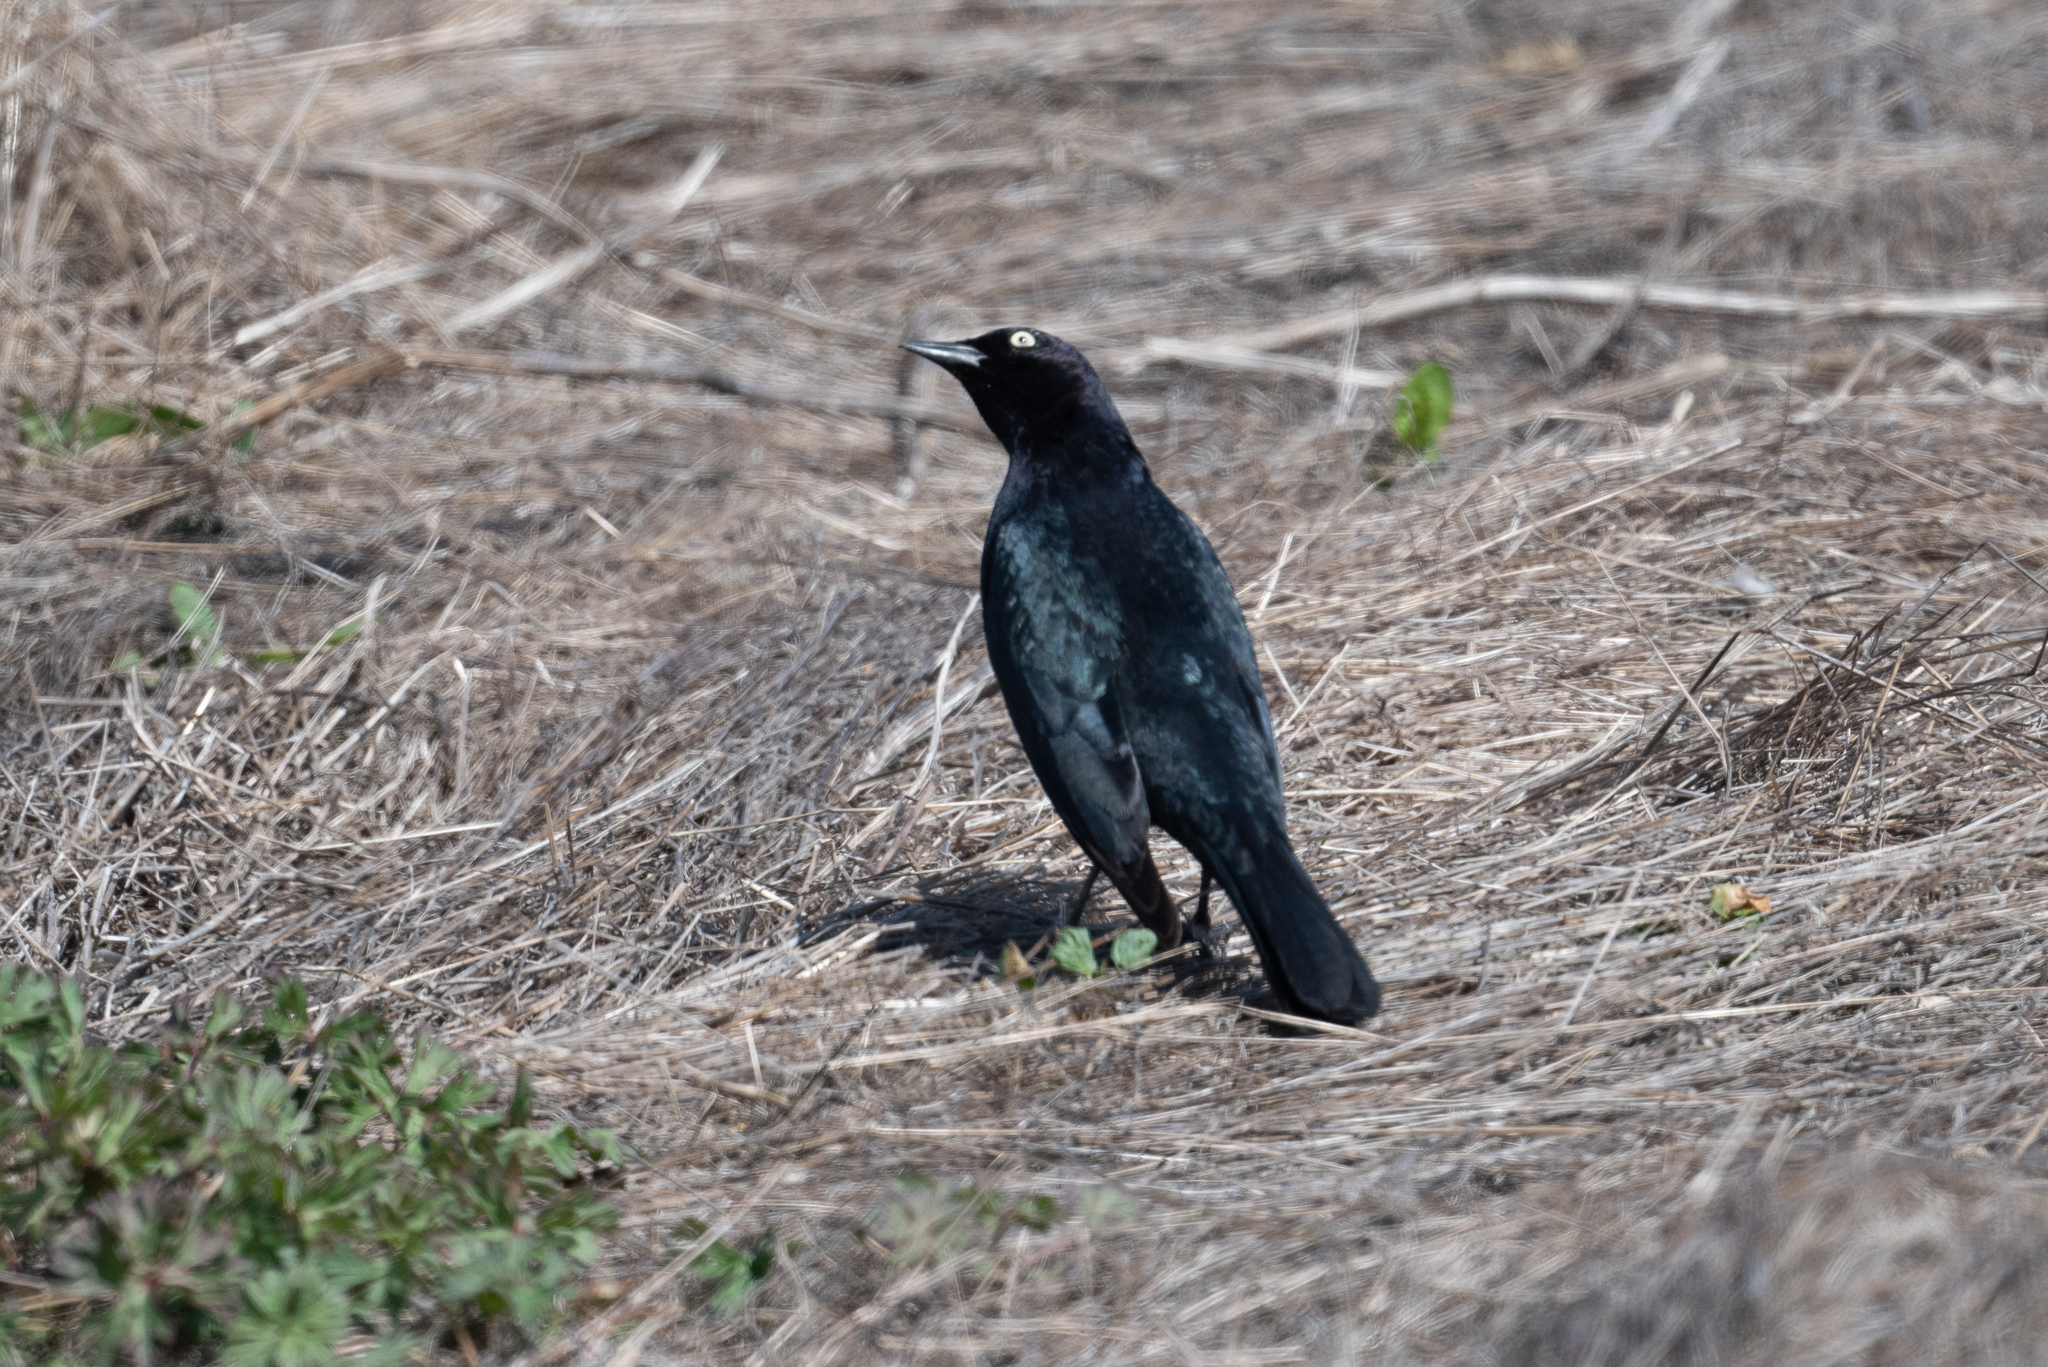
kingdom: Animalia
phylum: Chordata
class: Aves
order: Passeriformes
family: Icteridae
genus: Euphagus
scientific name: Euphagus cyanocephalus
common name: Brewer's blackbird
